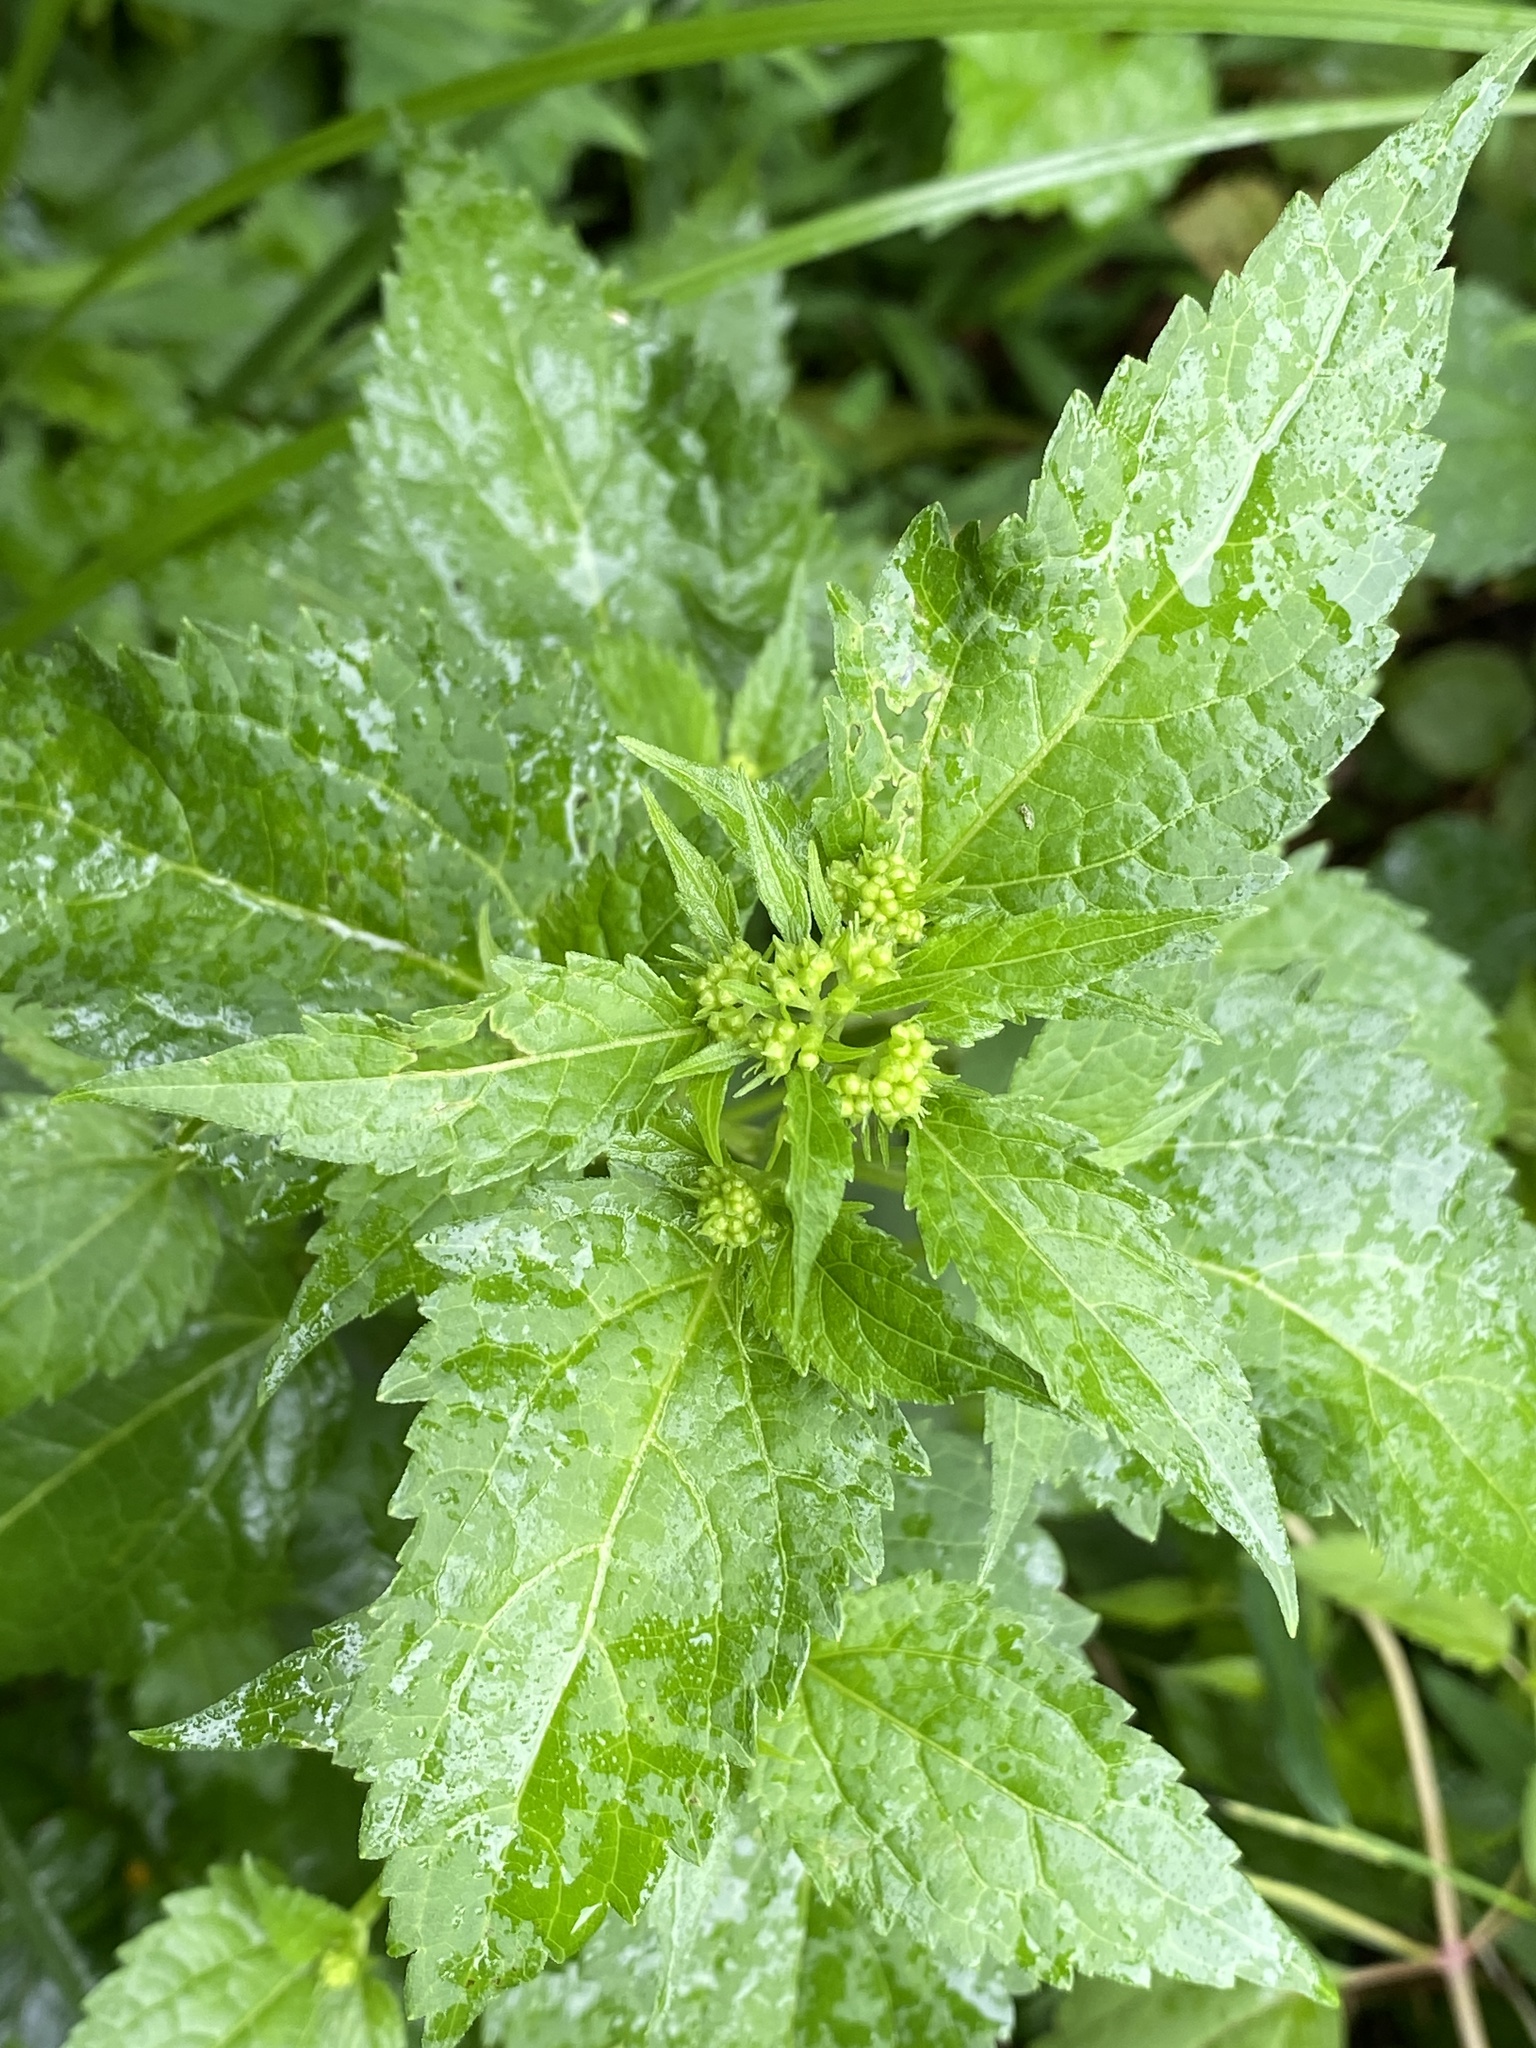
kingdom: Plantae
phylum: Tracheophyta
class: Magnoliopsida
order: Asterales
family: Asteraceae
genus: Ageratina
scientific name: Ageratina altissima
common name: White snakeroot
